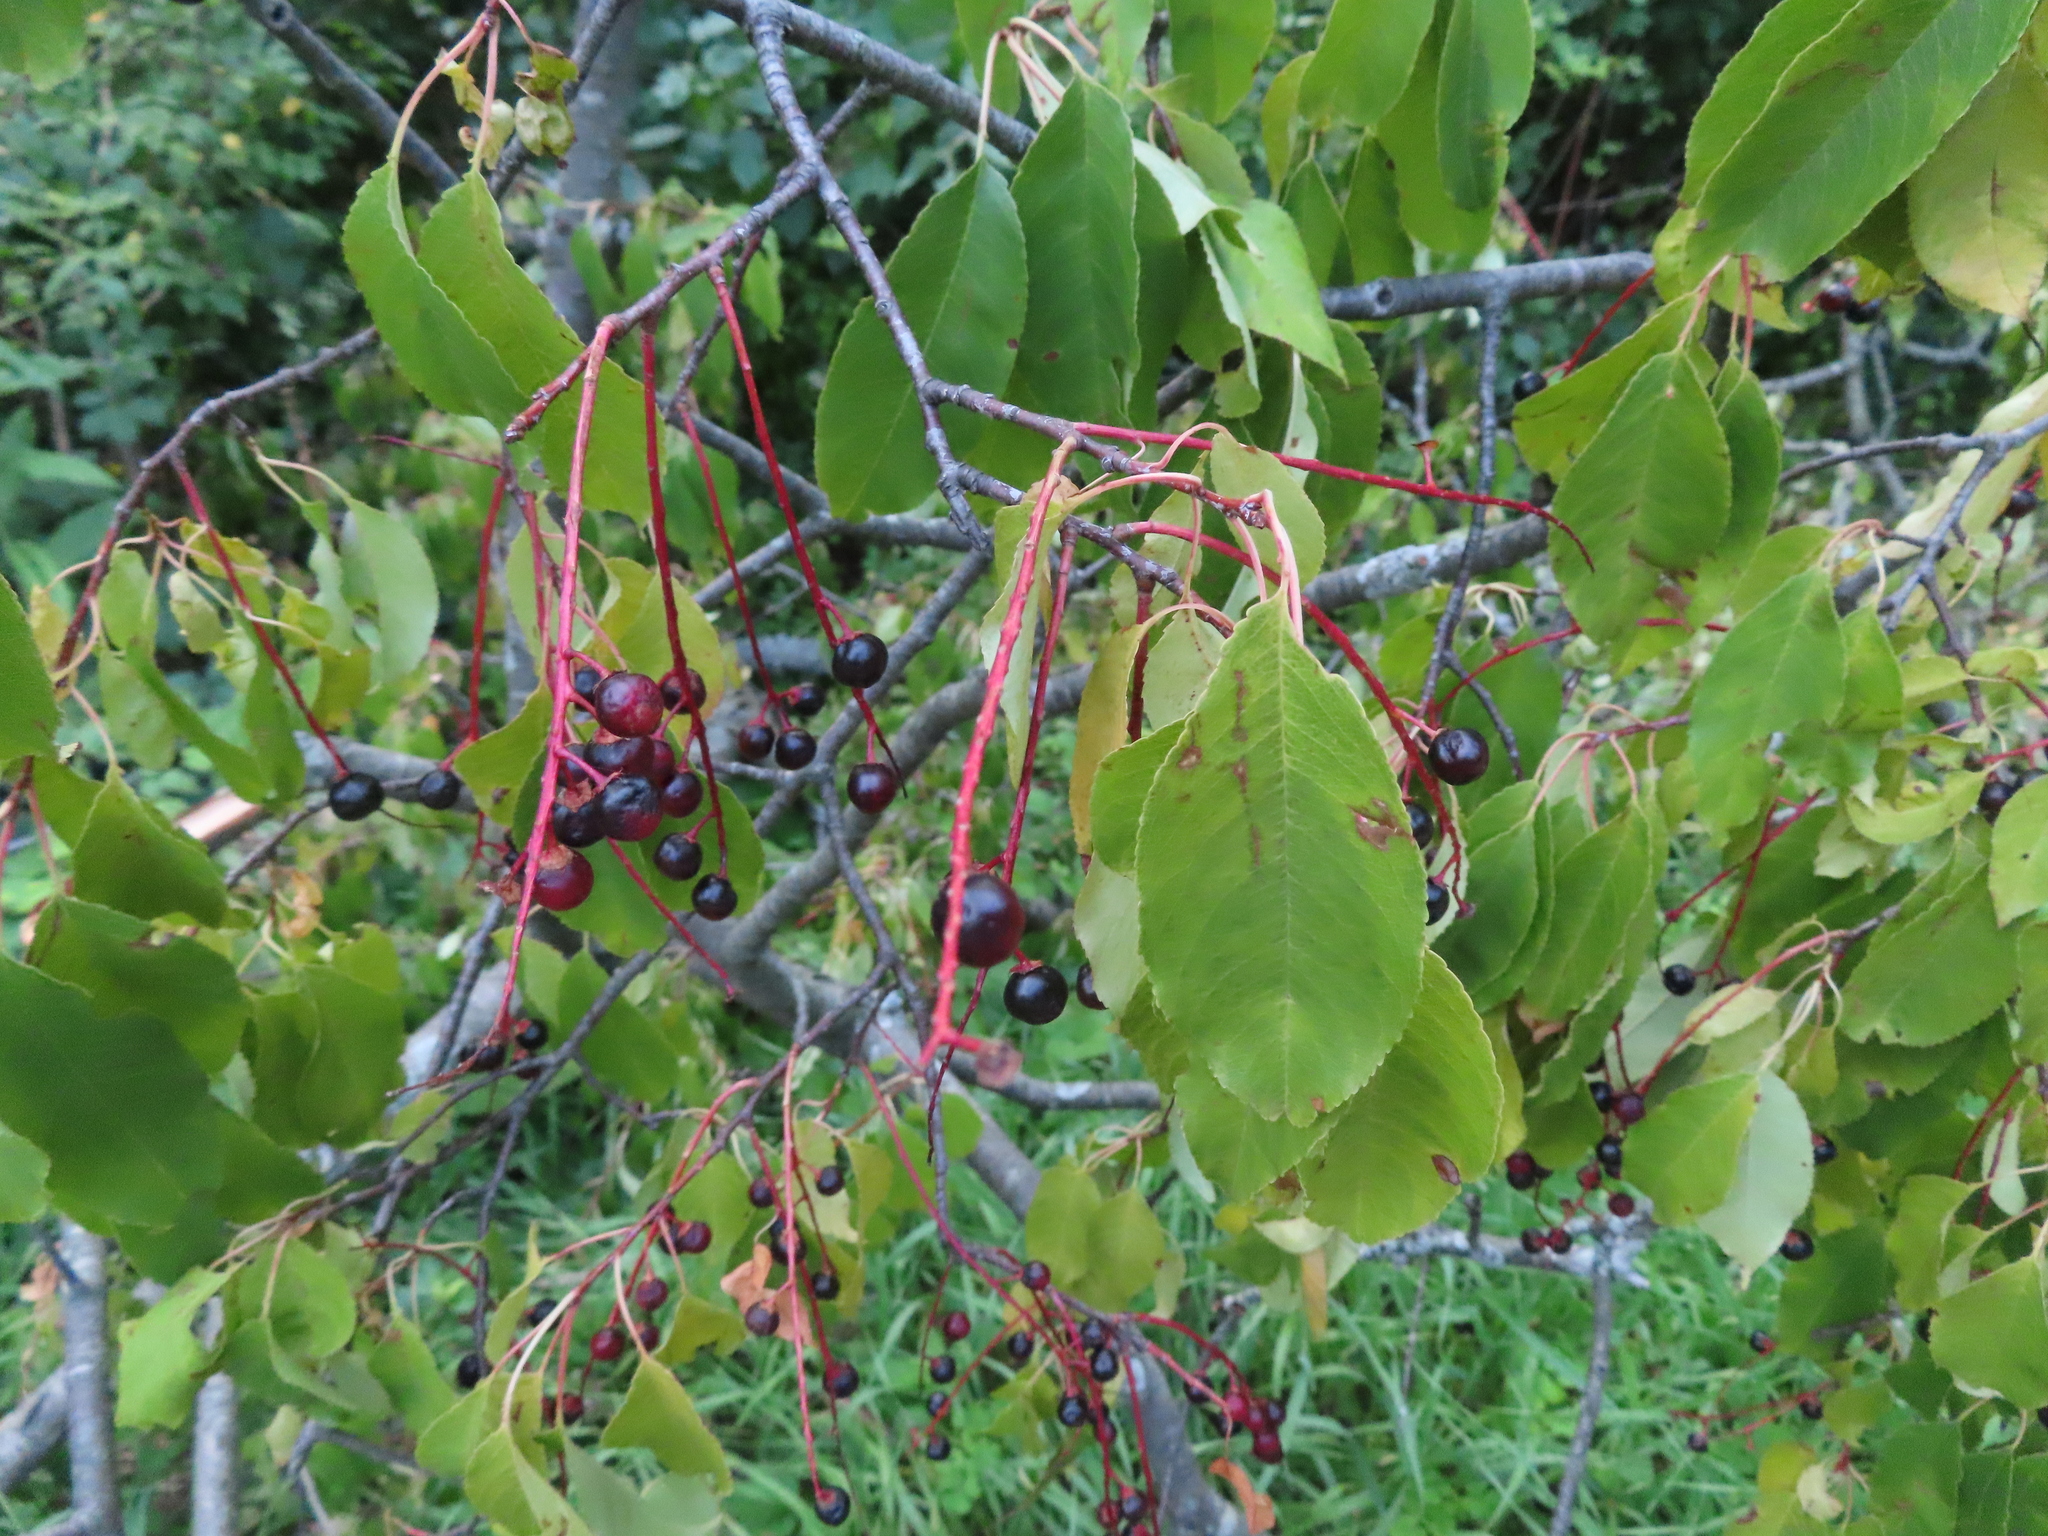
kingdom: Plantae
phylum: Tracheophyta
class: Magnoliopsida
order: Rosales
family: Rosaceae
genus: Prunus
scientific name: Prunus serotina
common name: Black cherry
